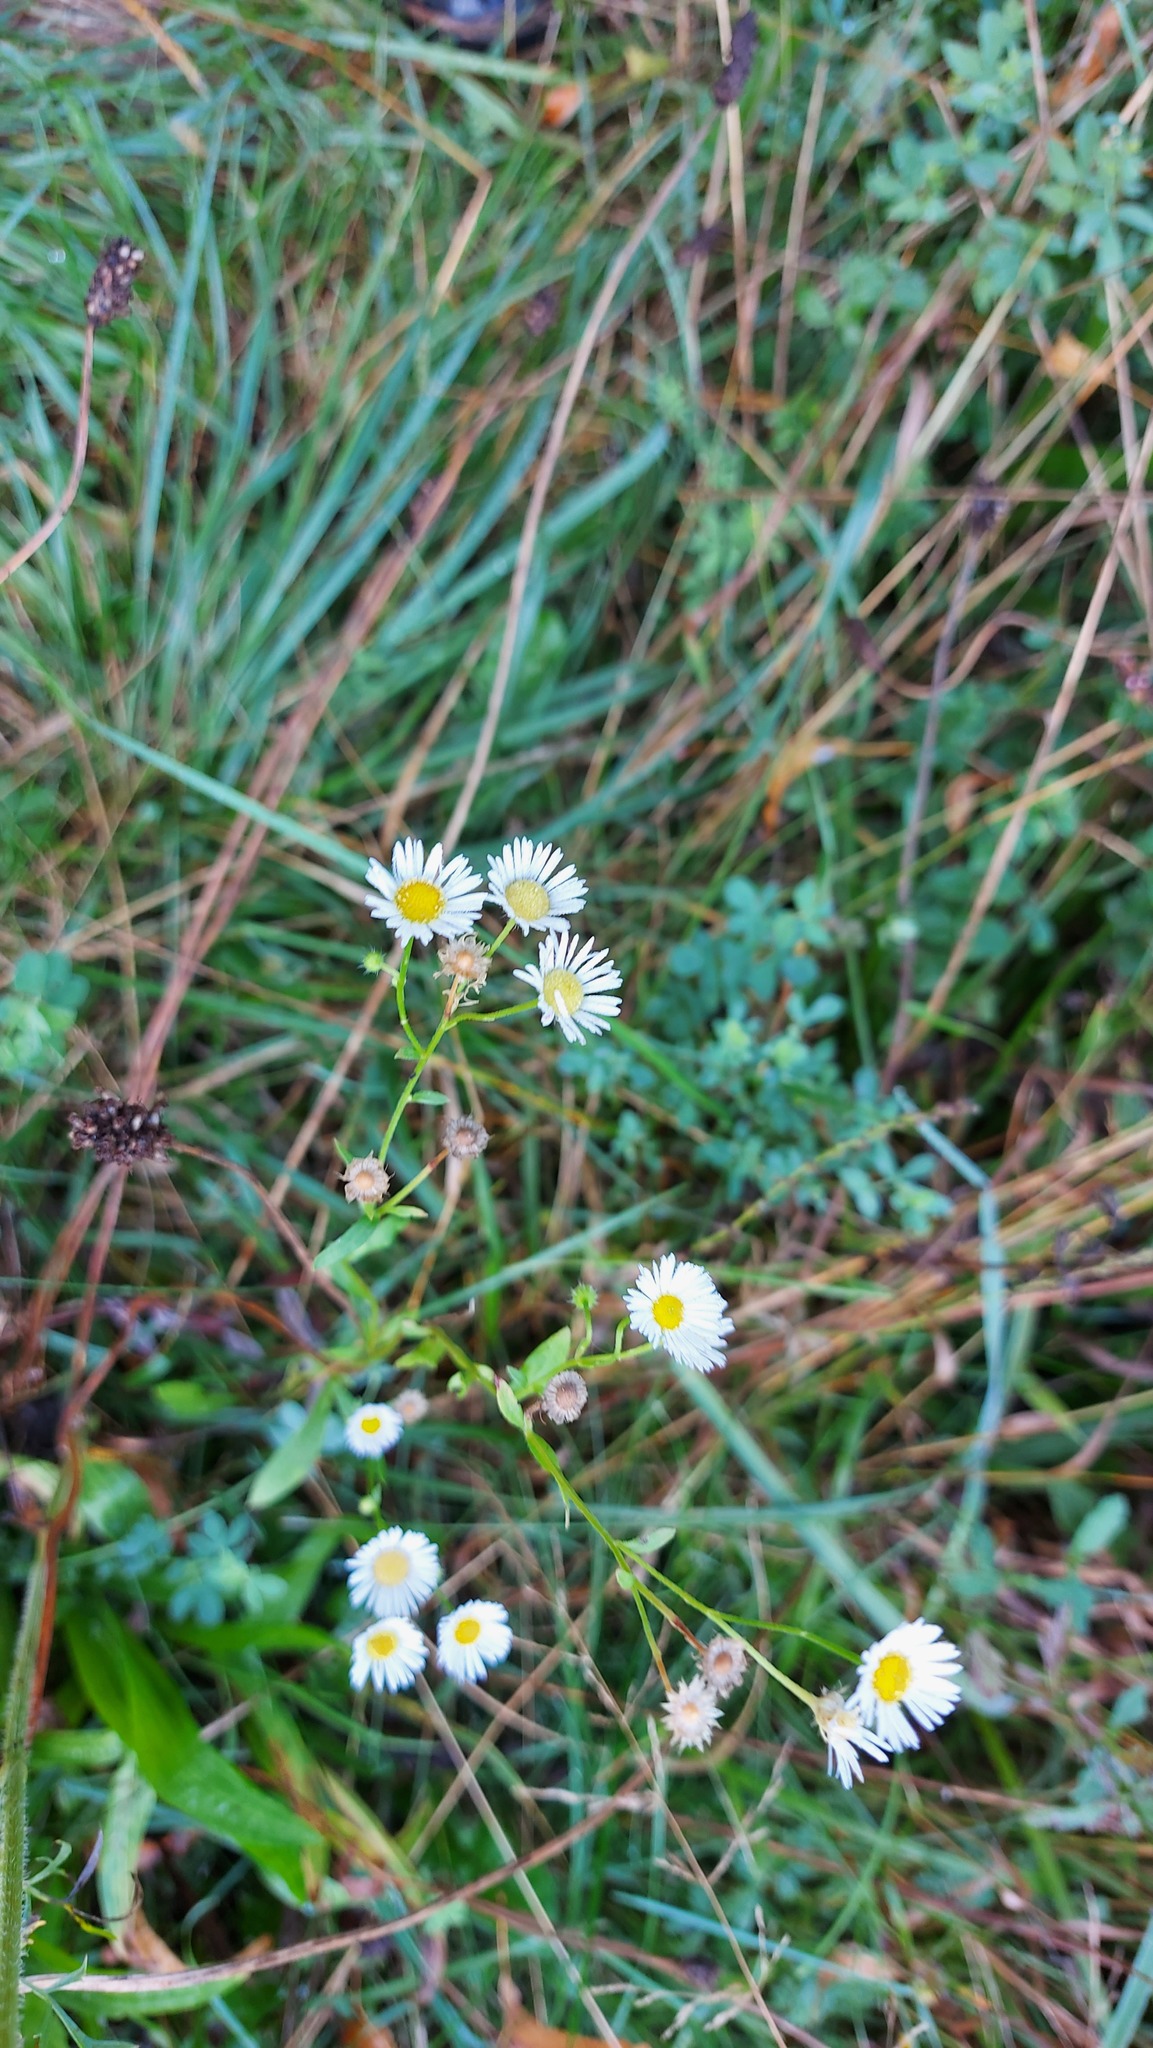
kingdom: Plantae
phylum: Tracheophyta
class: Magnoliopsida
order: Asterales
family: Asteraceae
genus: Erigeron
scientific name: Erigeron annuus
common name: Tall fleabane
